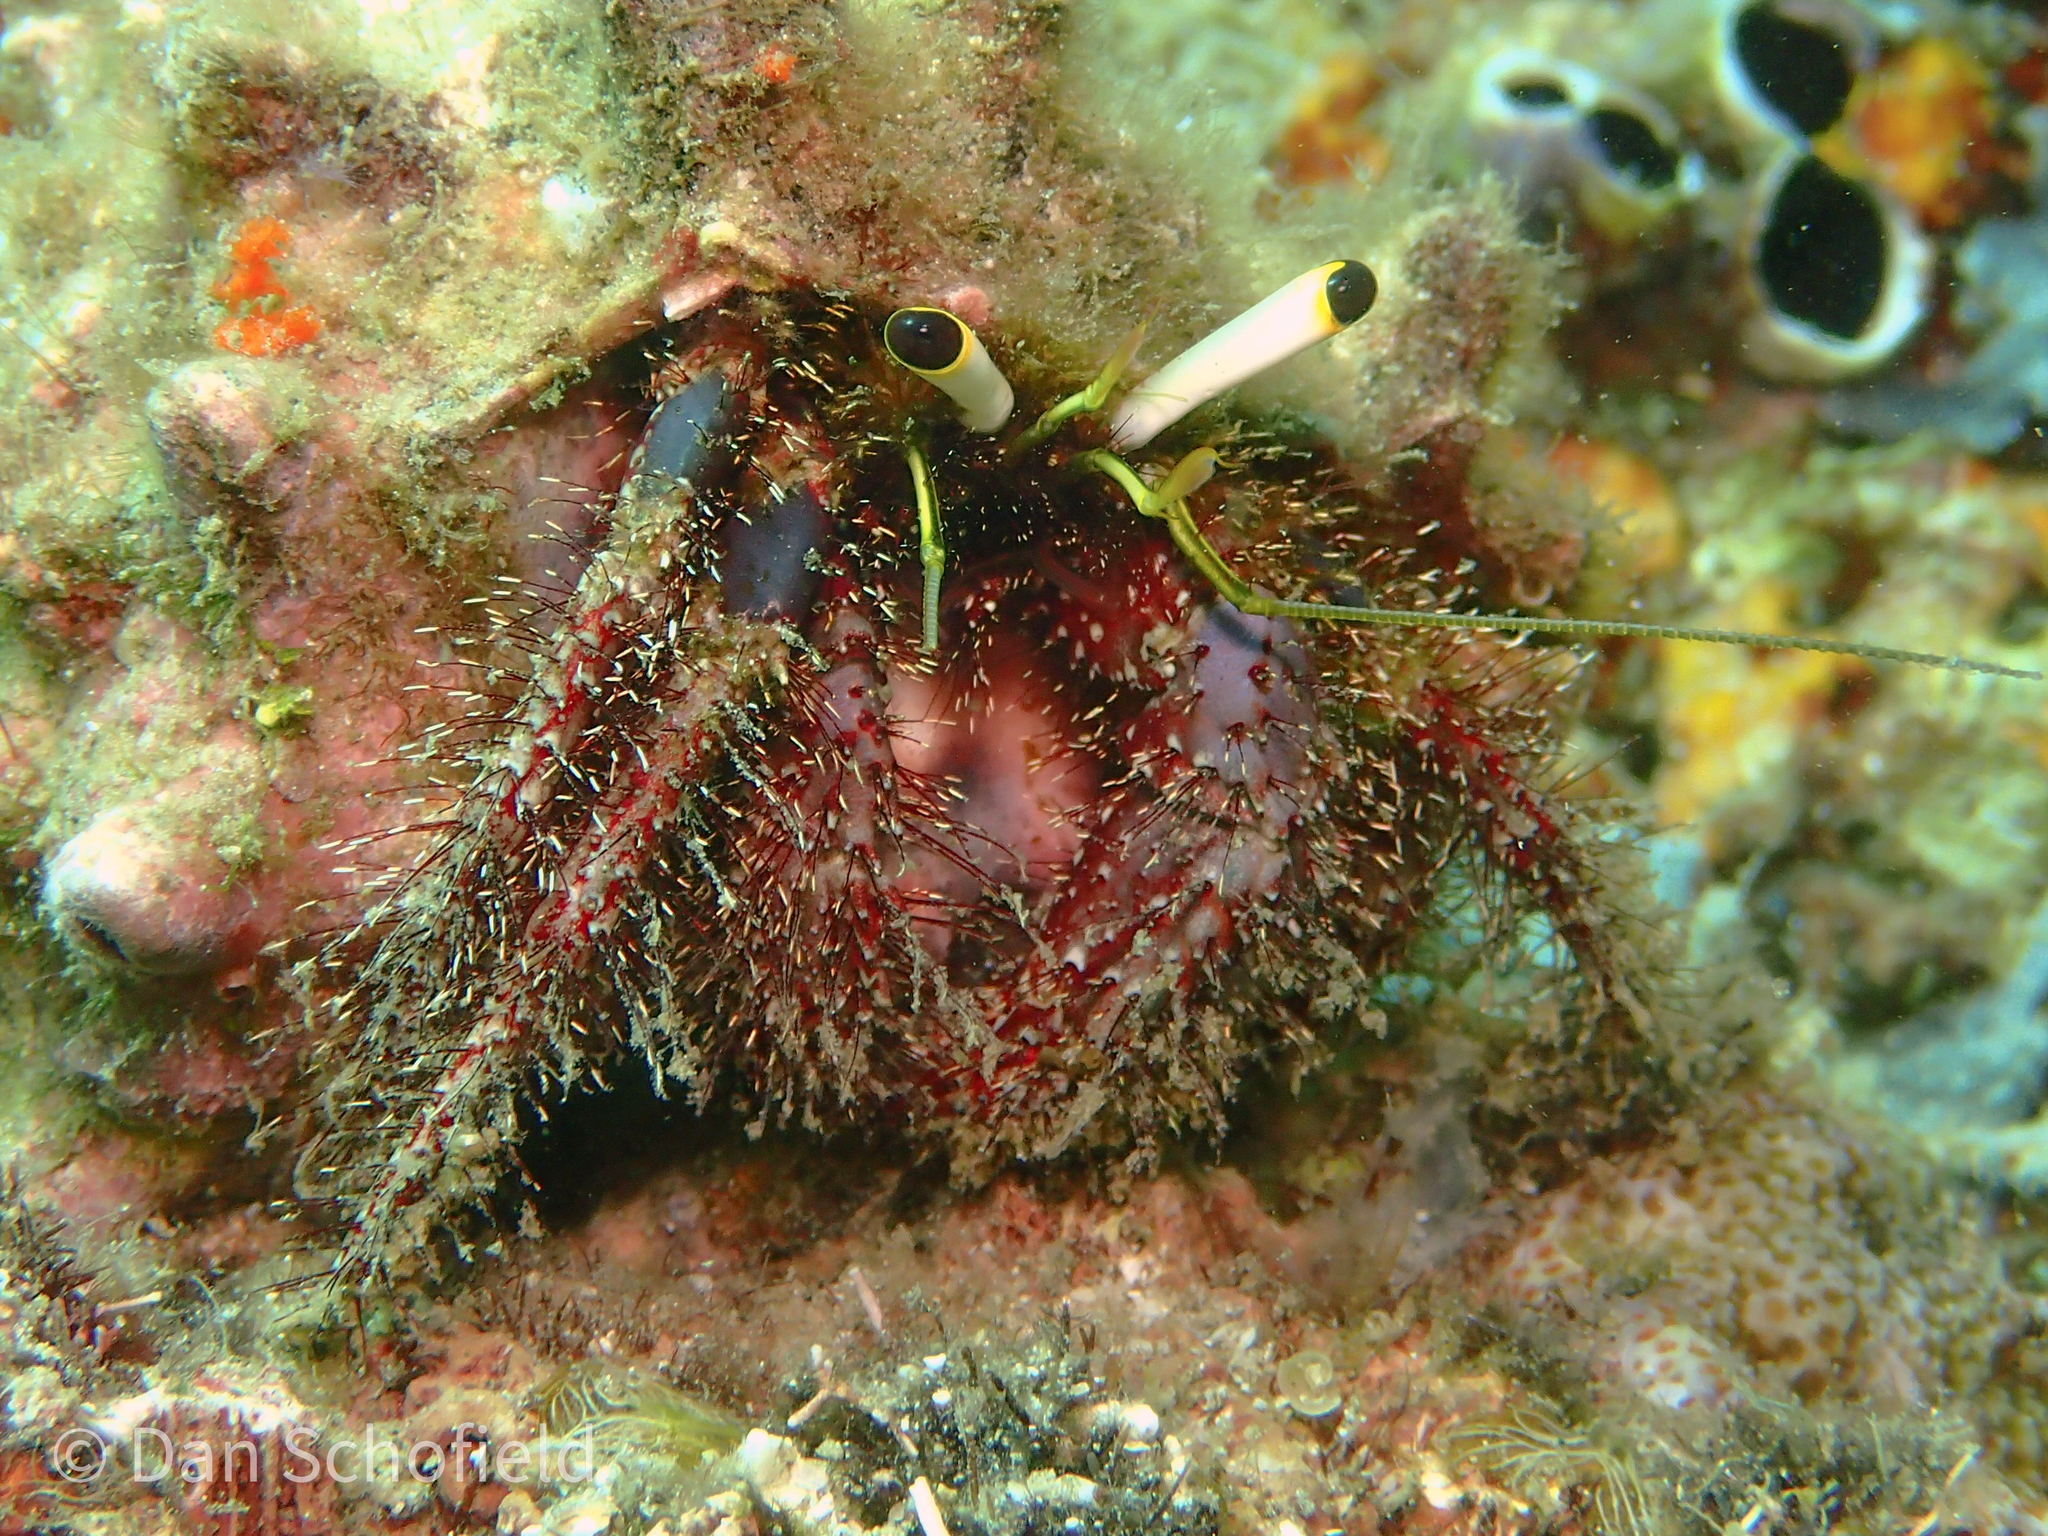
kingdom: Animalia
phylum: Arthropoda
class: Malacostraca
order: Decapoda
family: Diogenidae
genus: Dardanus
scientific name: Dardanus lagopodes
